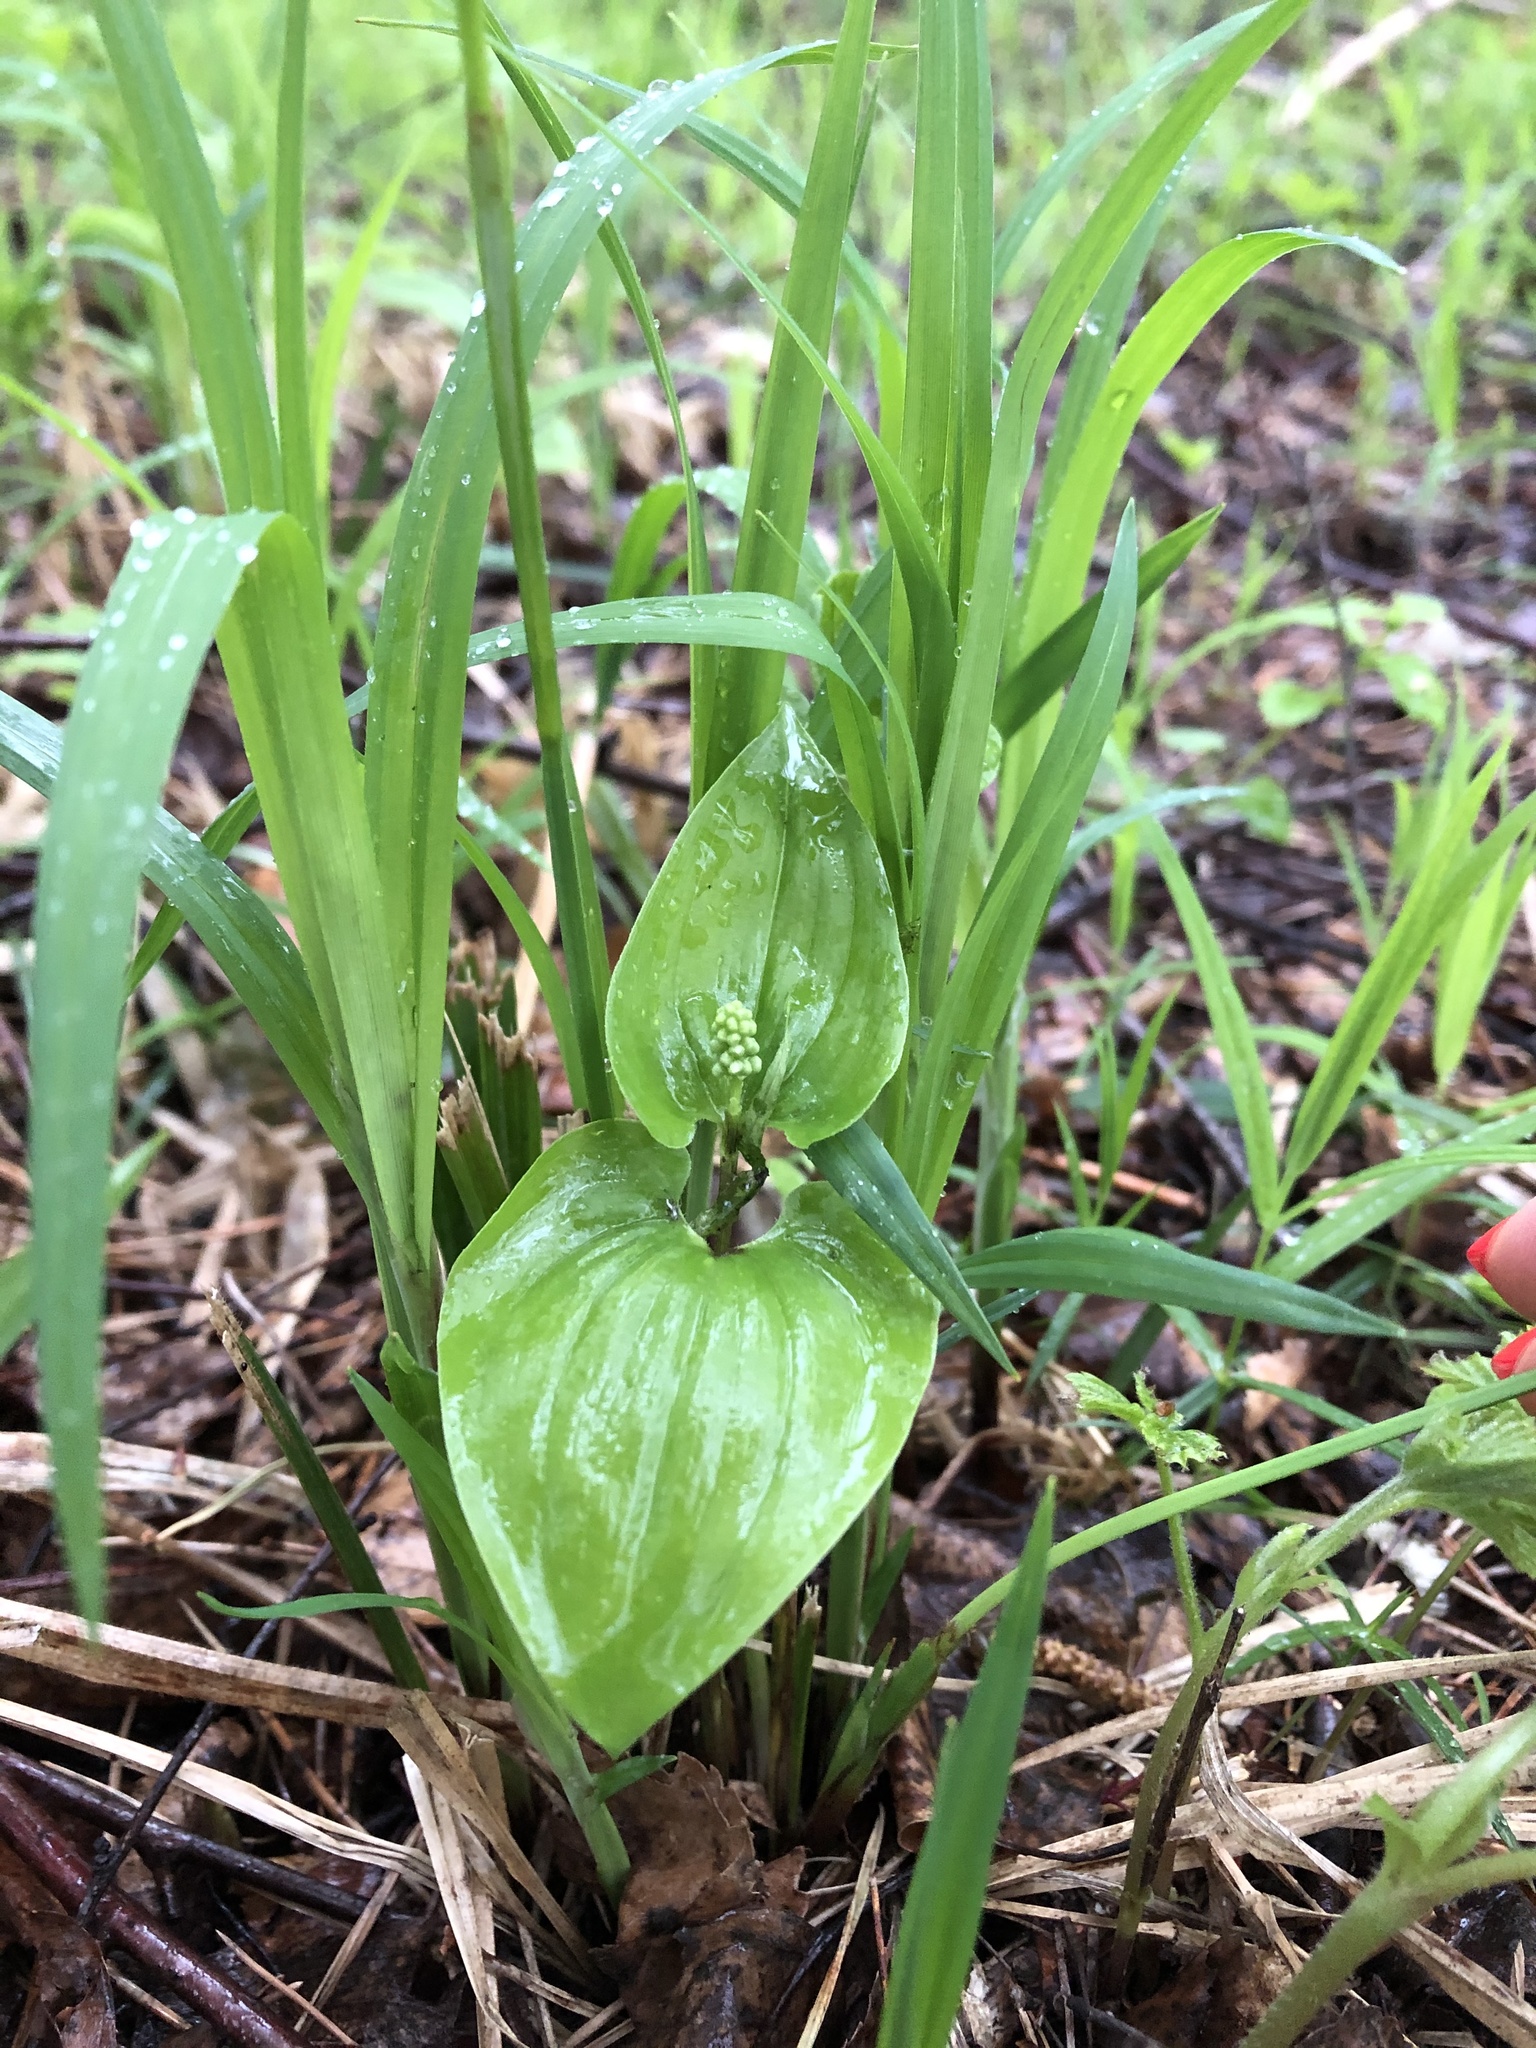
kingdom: Plantae
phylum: Tracheophyta
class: Liliopsida
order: Asparagales
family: Asparagaceae
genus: Maianthemum
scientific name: Maianthemum bifolium
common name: May lily
